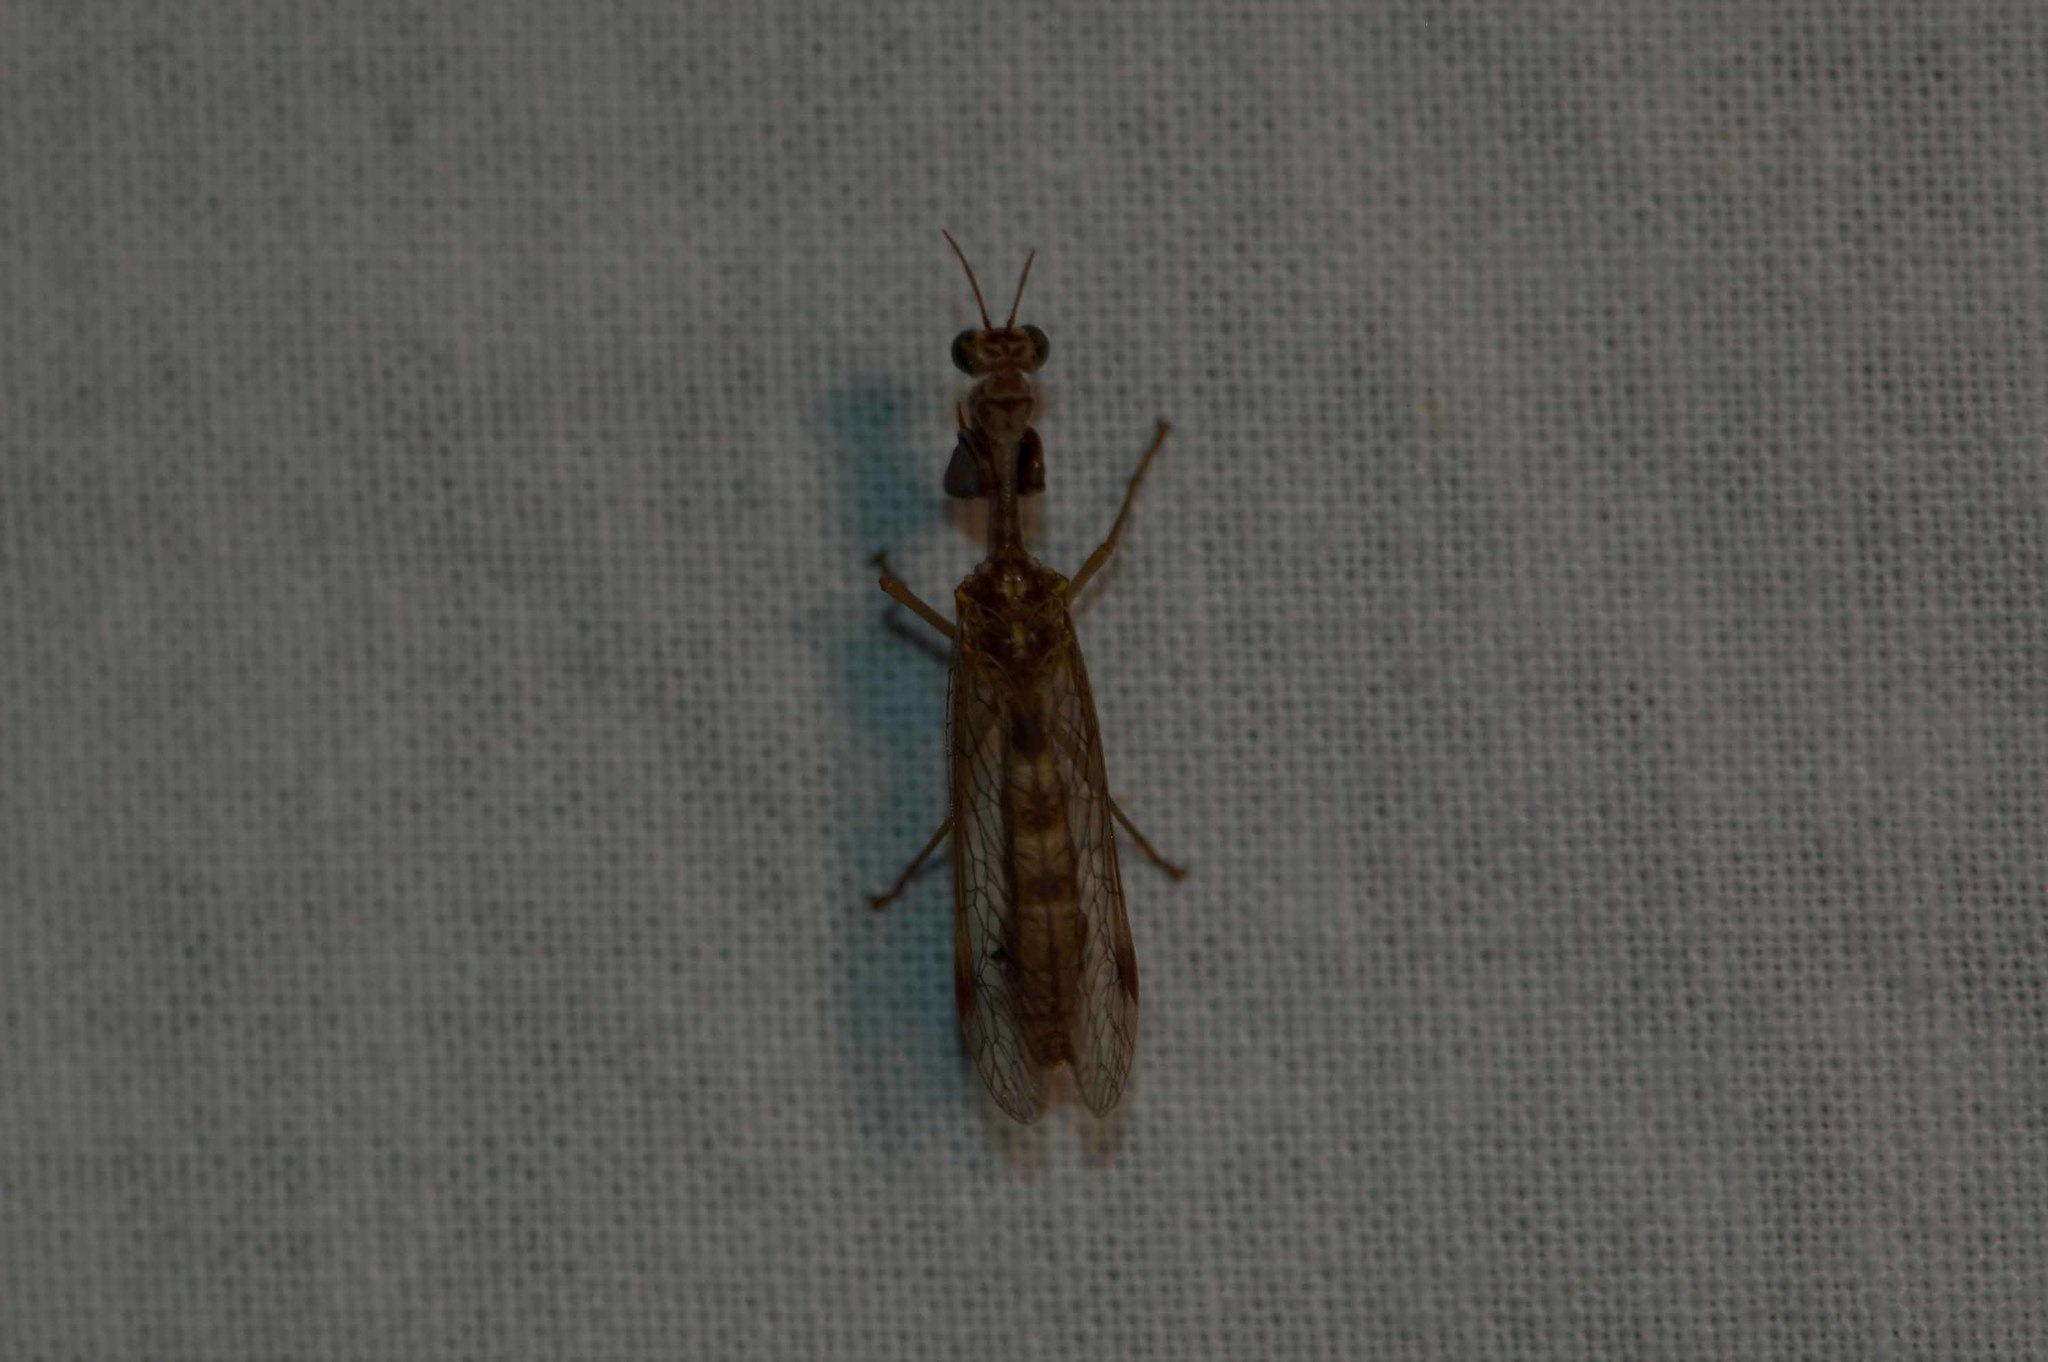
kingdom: Animalia
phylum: Arthropoda
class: Insecta
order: Neuroptera
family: Mantispidae
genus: Mantispa
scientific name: Mantispa styriaca
